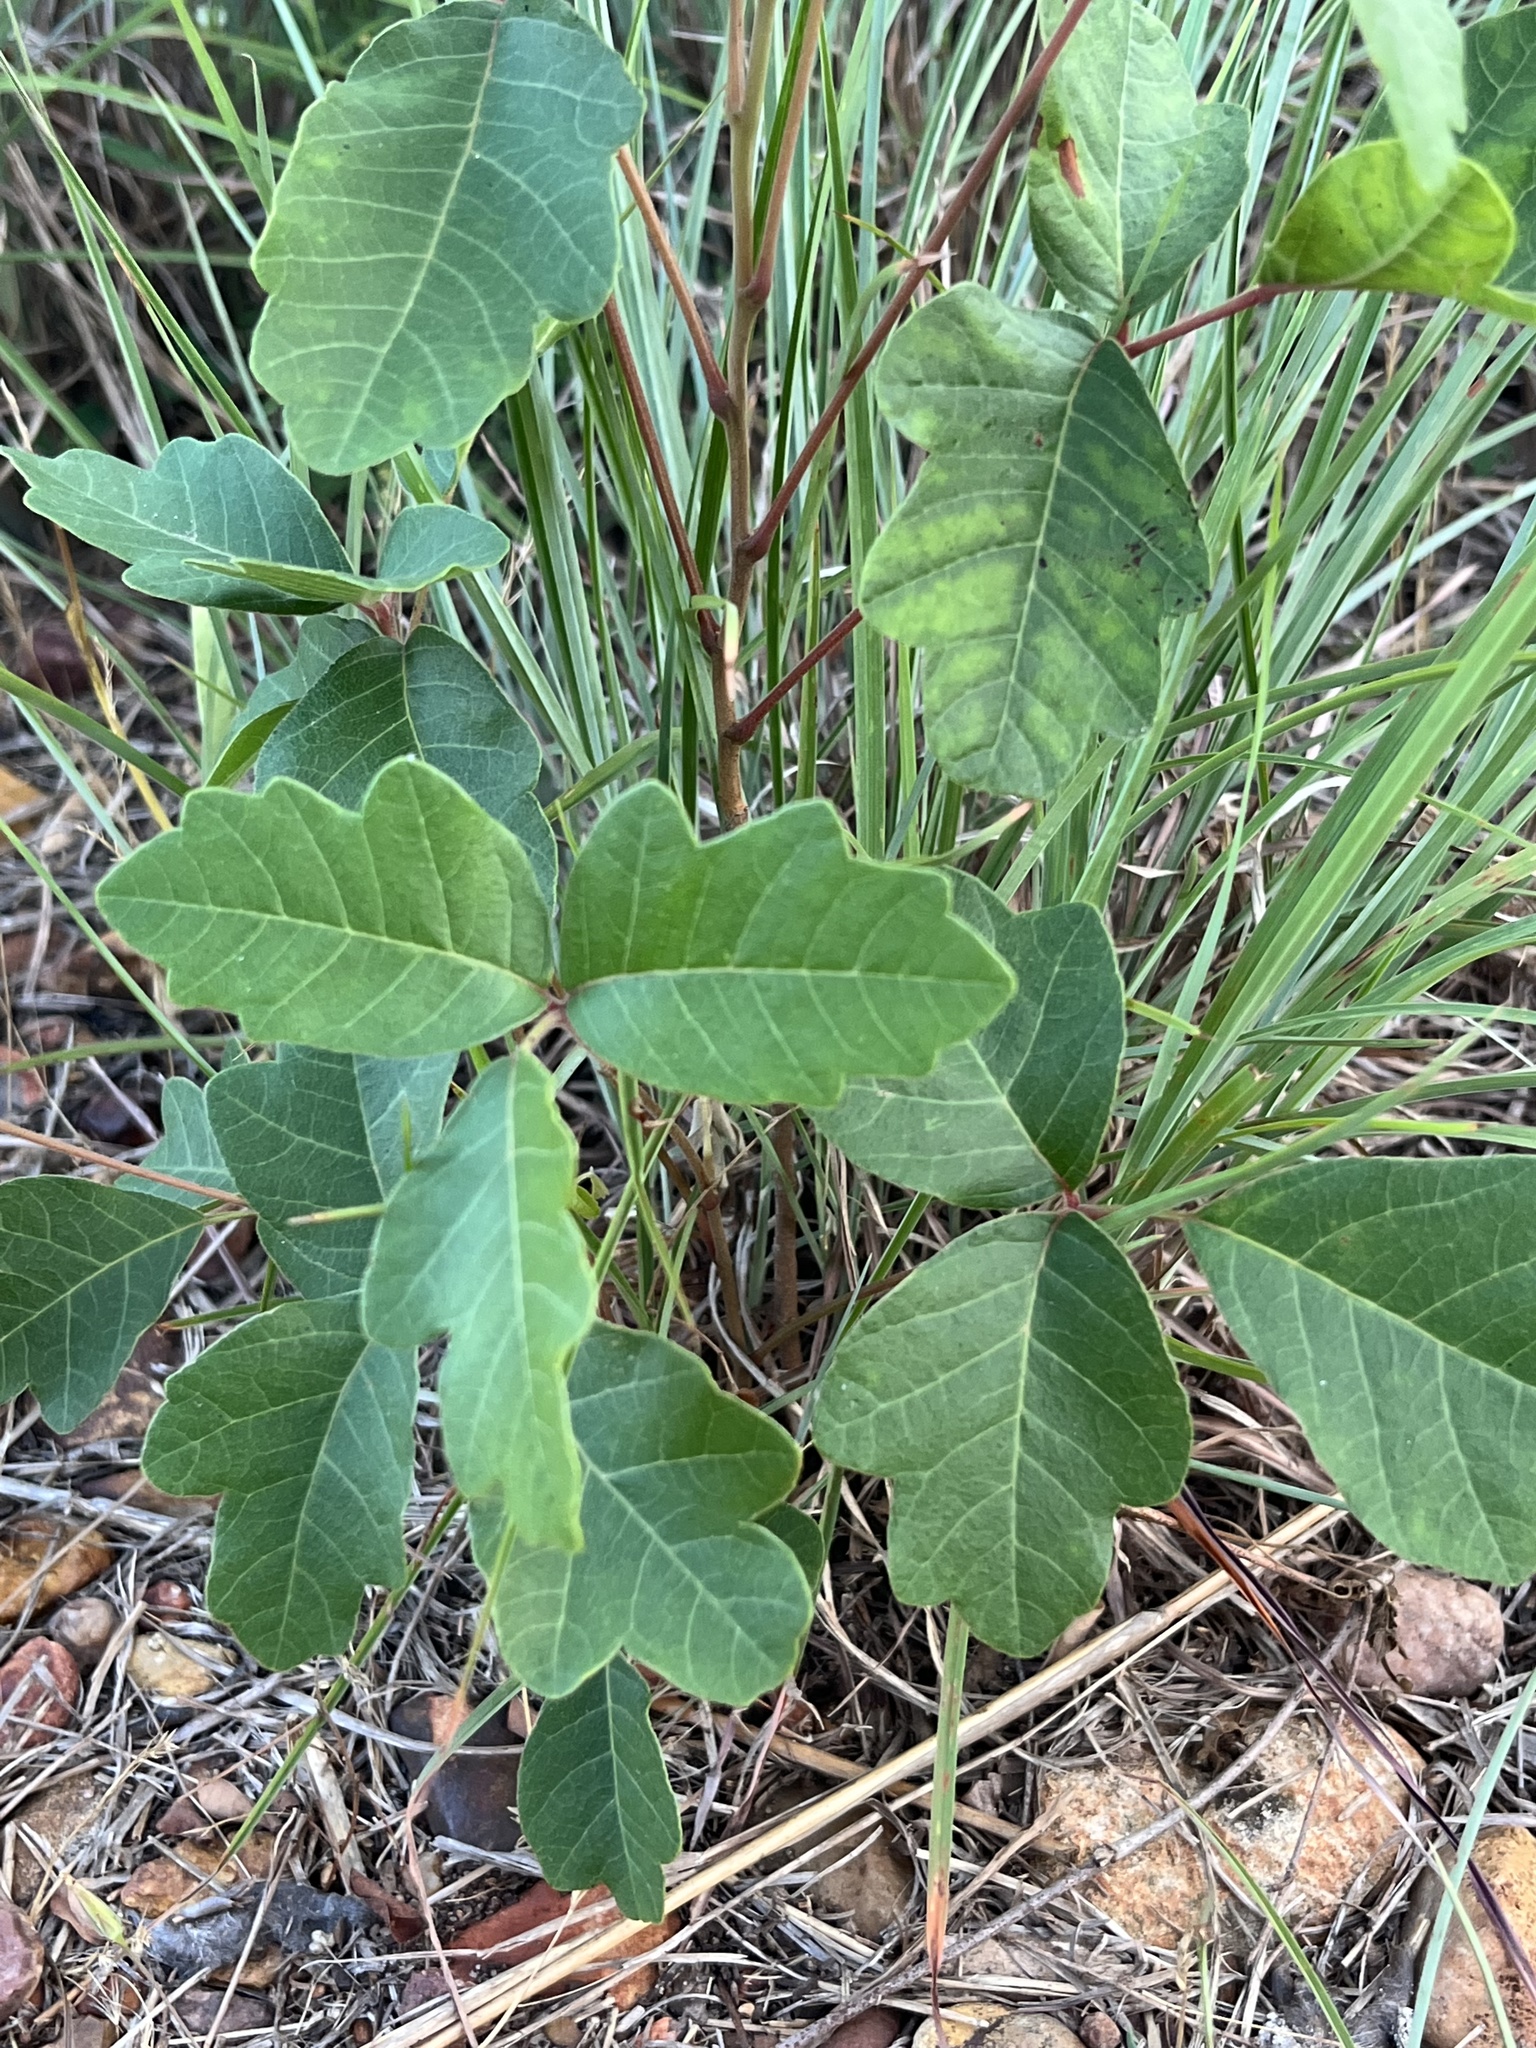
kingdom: Plantae
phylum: Tracheophyta
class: Magnoliopsida
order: Sapindales
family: Anacardiaceae
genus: Toxicodendron
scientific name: Toxicodendron pubescens
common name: Eastern poison-oak
